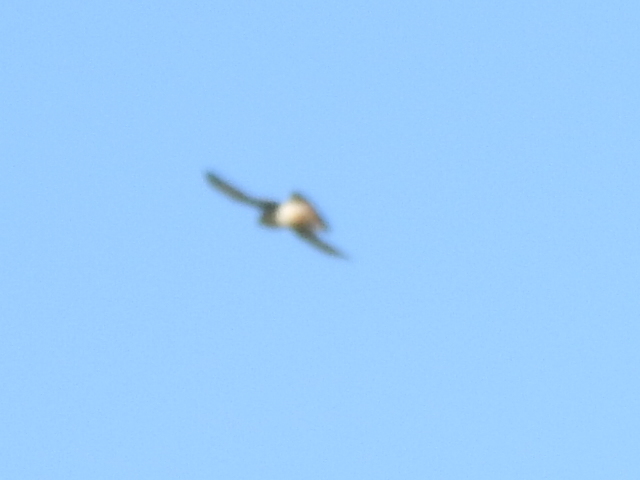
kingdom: Animalia
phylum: Chordata
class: Aves
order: Falconiformes
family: Falconidae
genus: Falco
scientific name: Falco sparverius
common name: American kestrel
